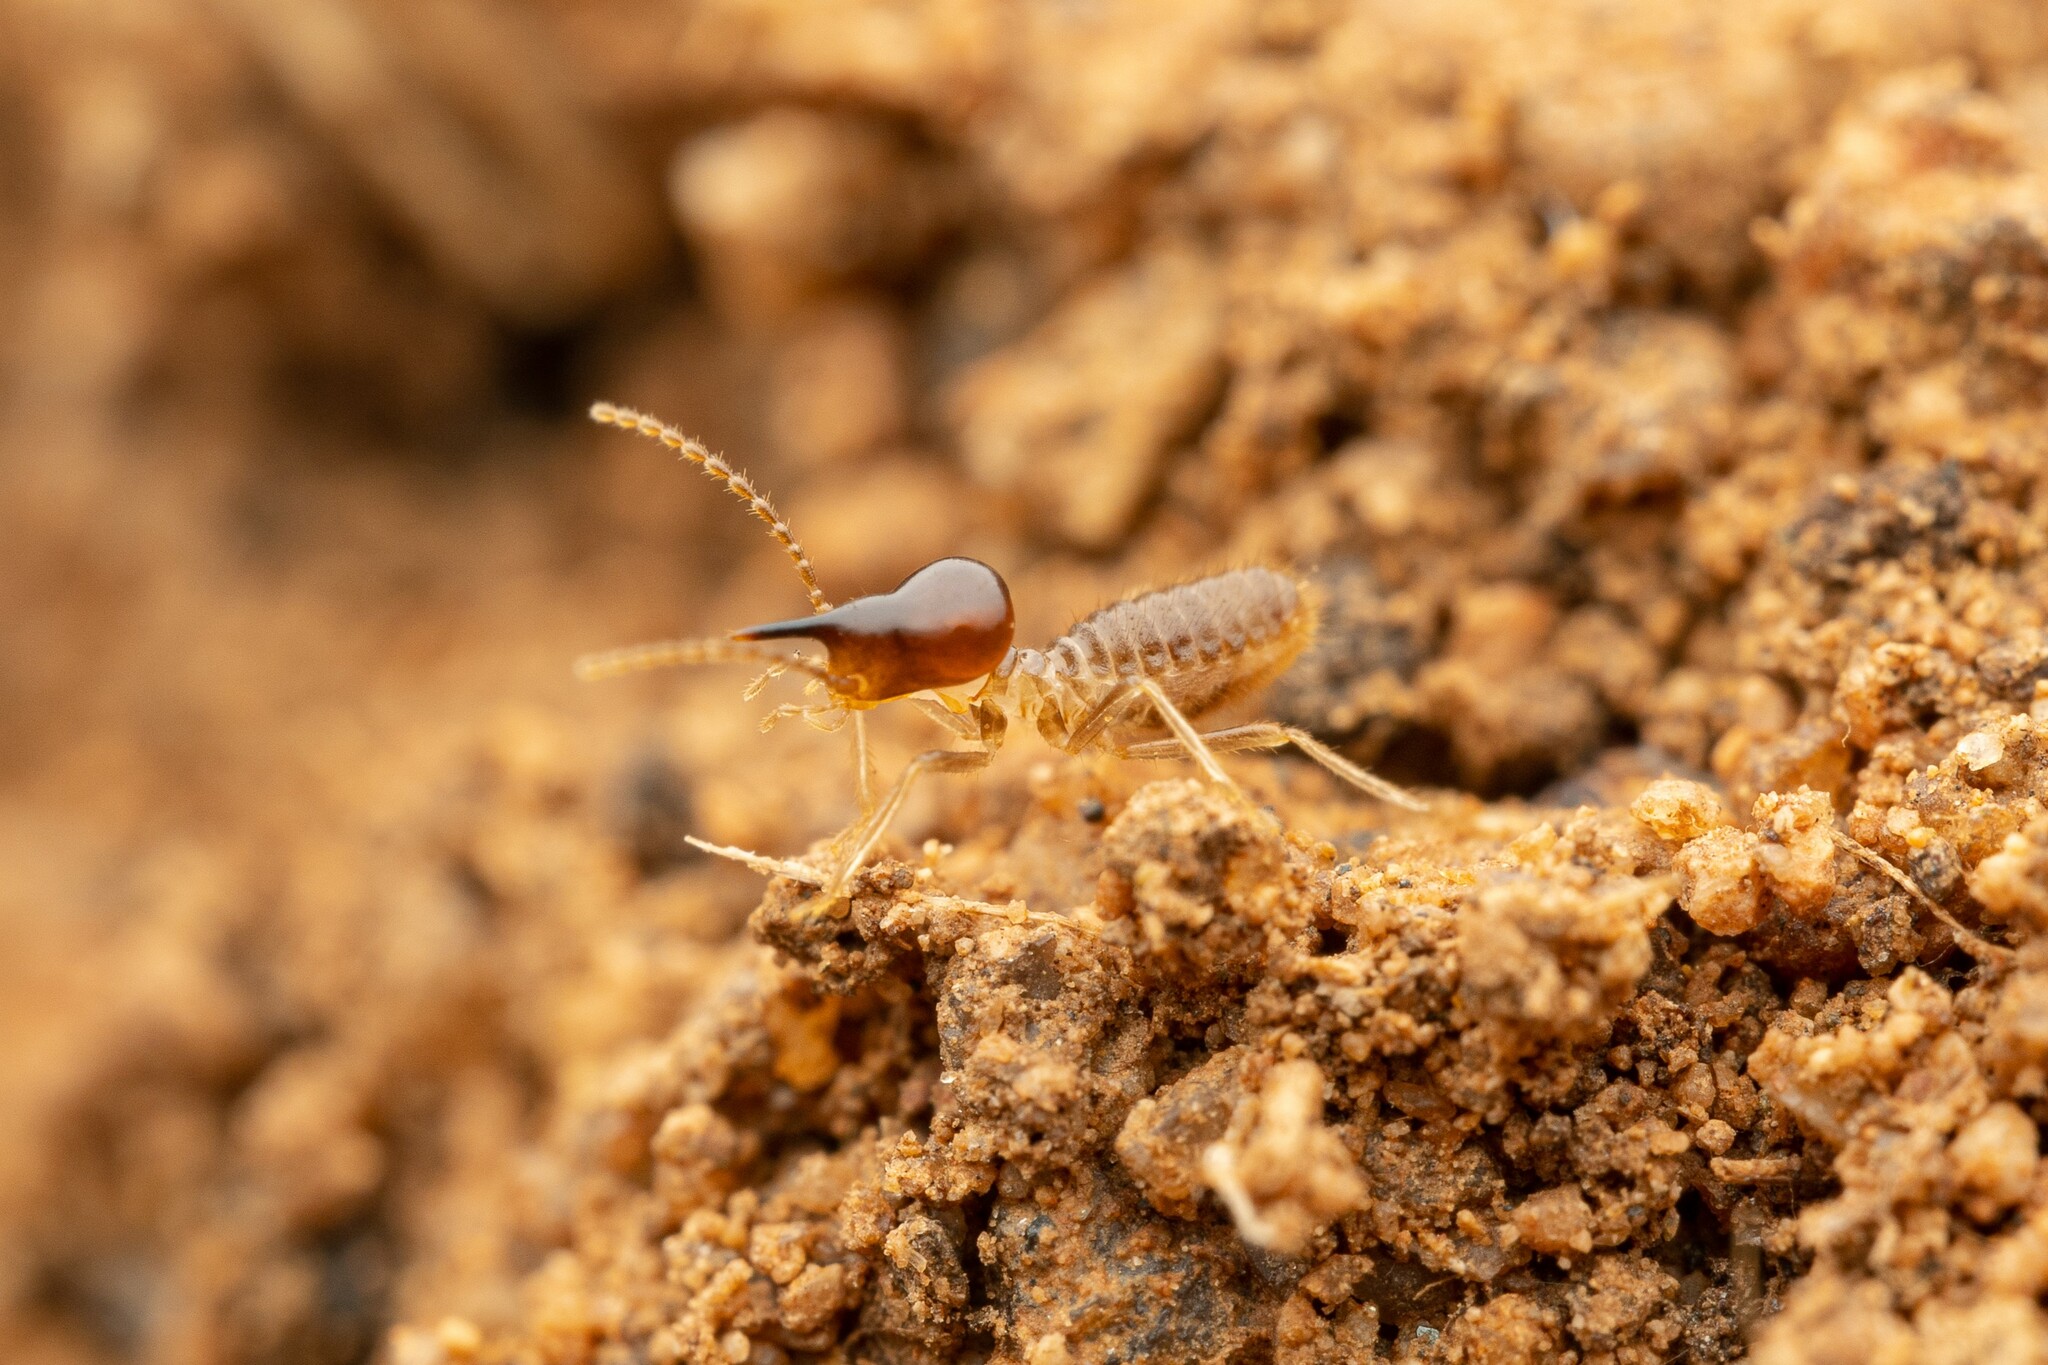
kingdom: Animalia
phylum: Arthropoda
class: Insecta
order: Blattodea
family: Termitidae
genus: Tenuirostritermes
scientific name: Tenuirostritermes tenuirostris
